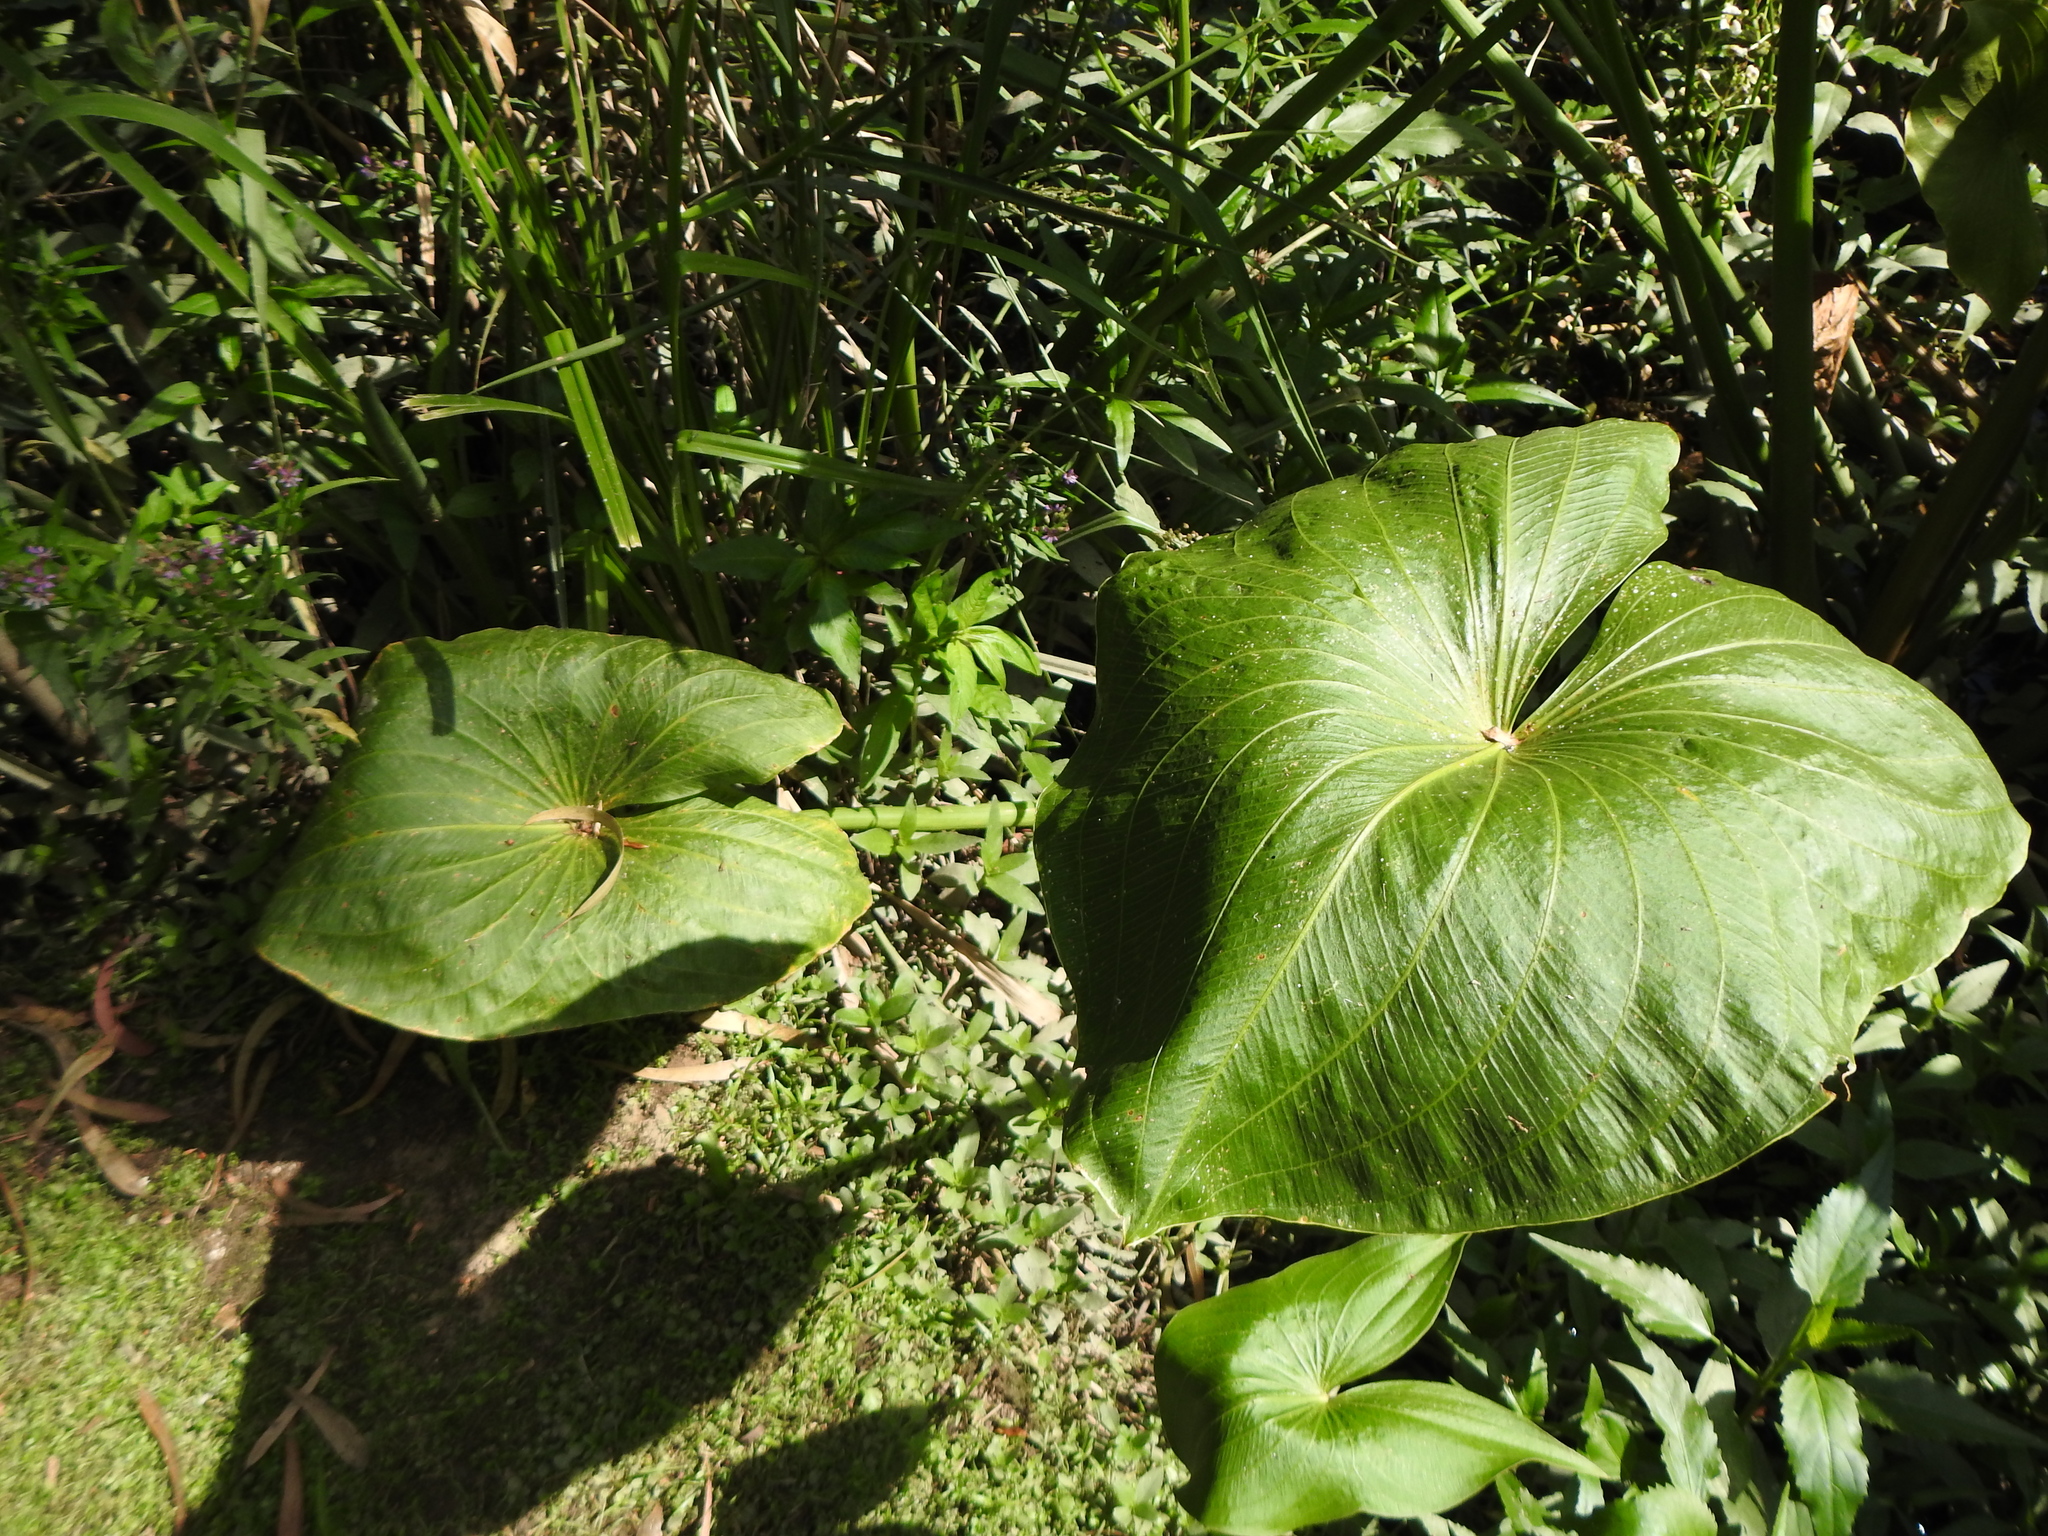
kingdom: Plantae
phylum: Tracheophyta
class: Liliopsida
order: Alismatales
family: Alismataceae
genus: Sagittaria
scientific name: Sagittaria montevidensis
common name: Giant arrowhead
